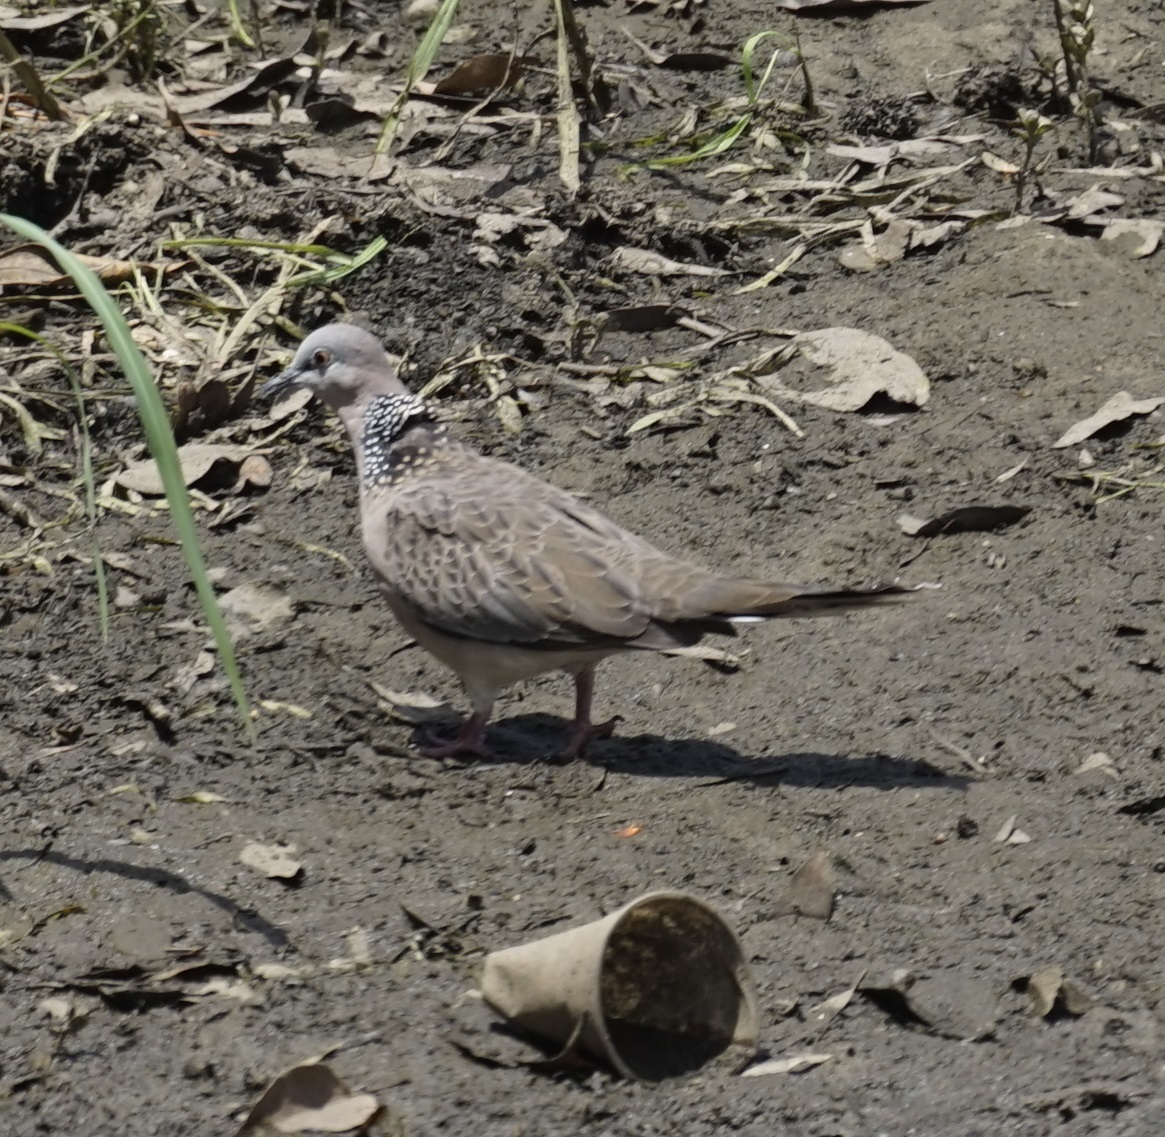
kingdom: Animalia
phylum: Chordata
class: Aves
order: Columbiformes
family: Columbidae
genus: Spilopelia
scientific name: Spilopelia chinensis
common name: Spotted dove
